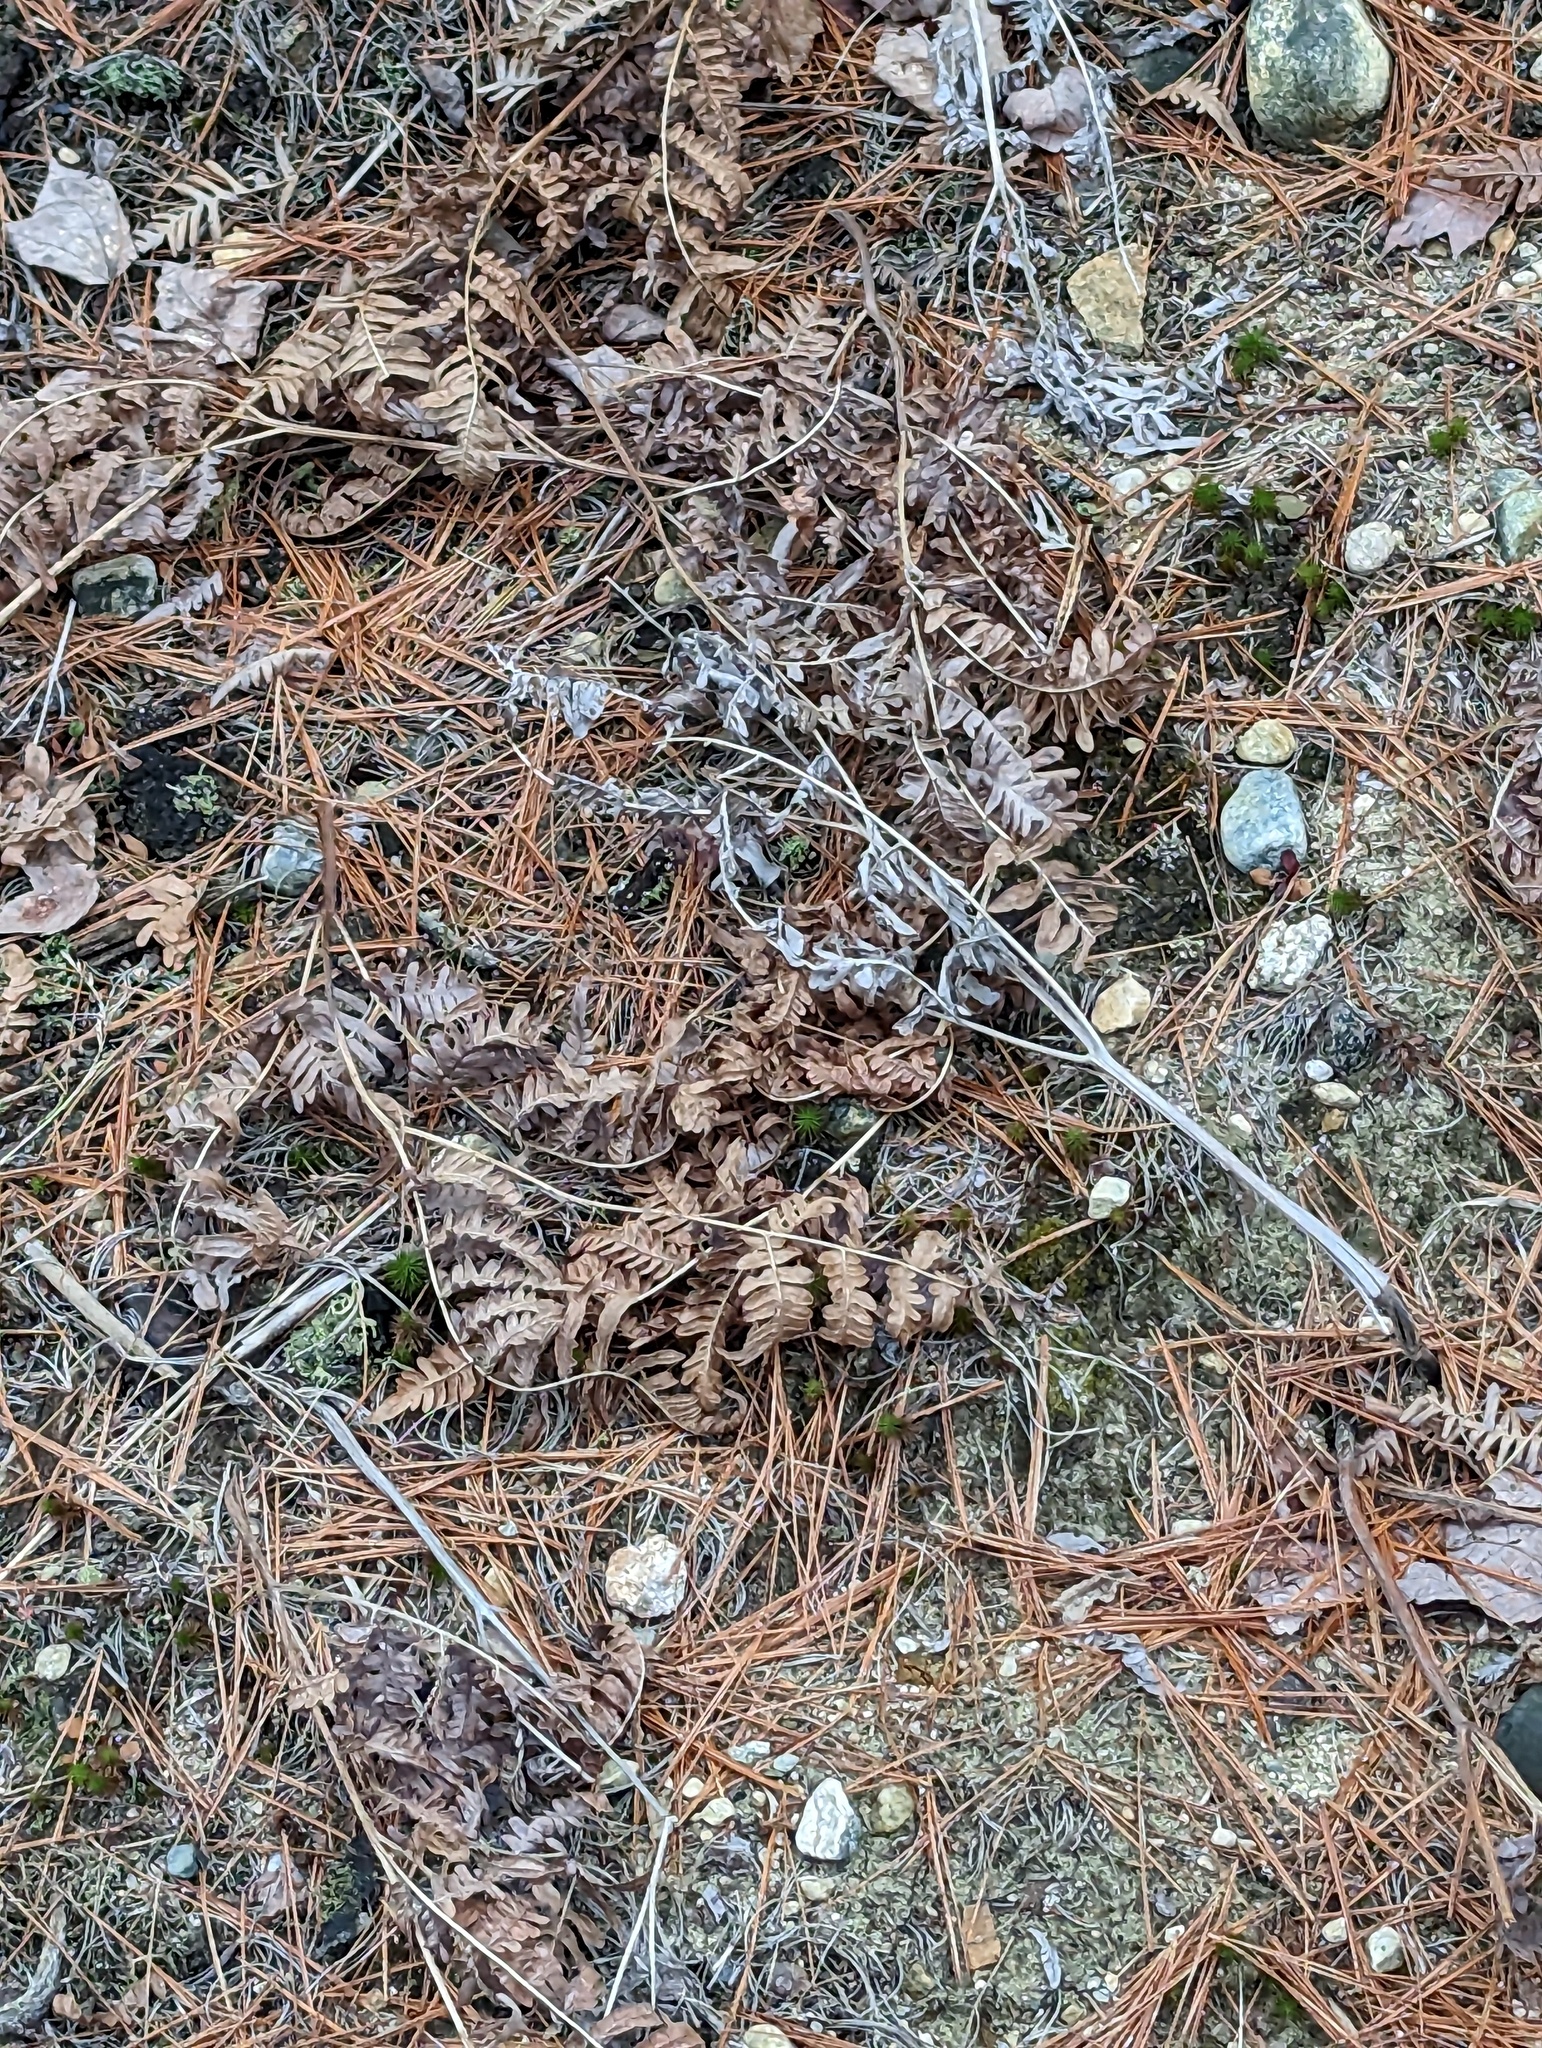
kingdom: Plantae
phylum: Tracheophyta
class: Polypodiopsida
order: Polypodiales
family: Dennstaedtiaceae
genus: Pteridium
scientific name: Pteridium aquilinum
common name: Bracken
